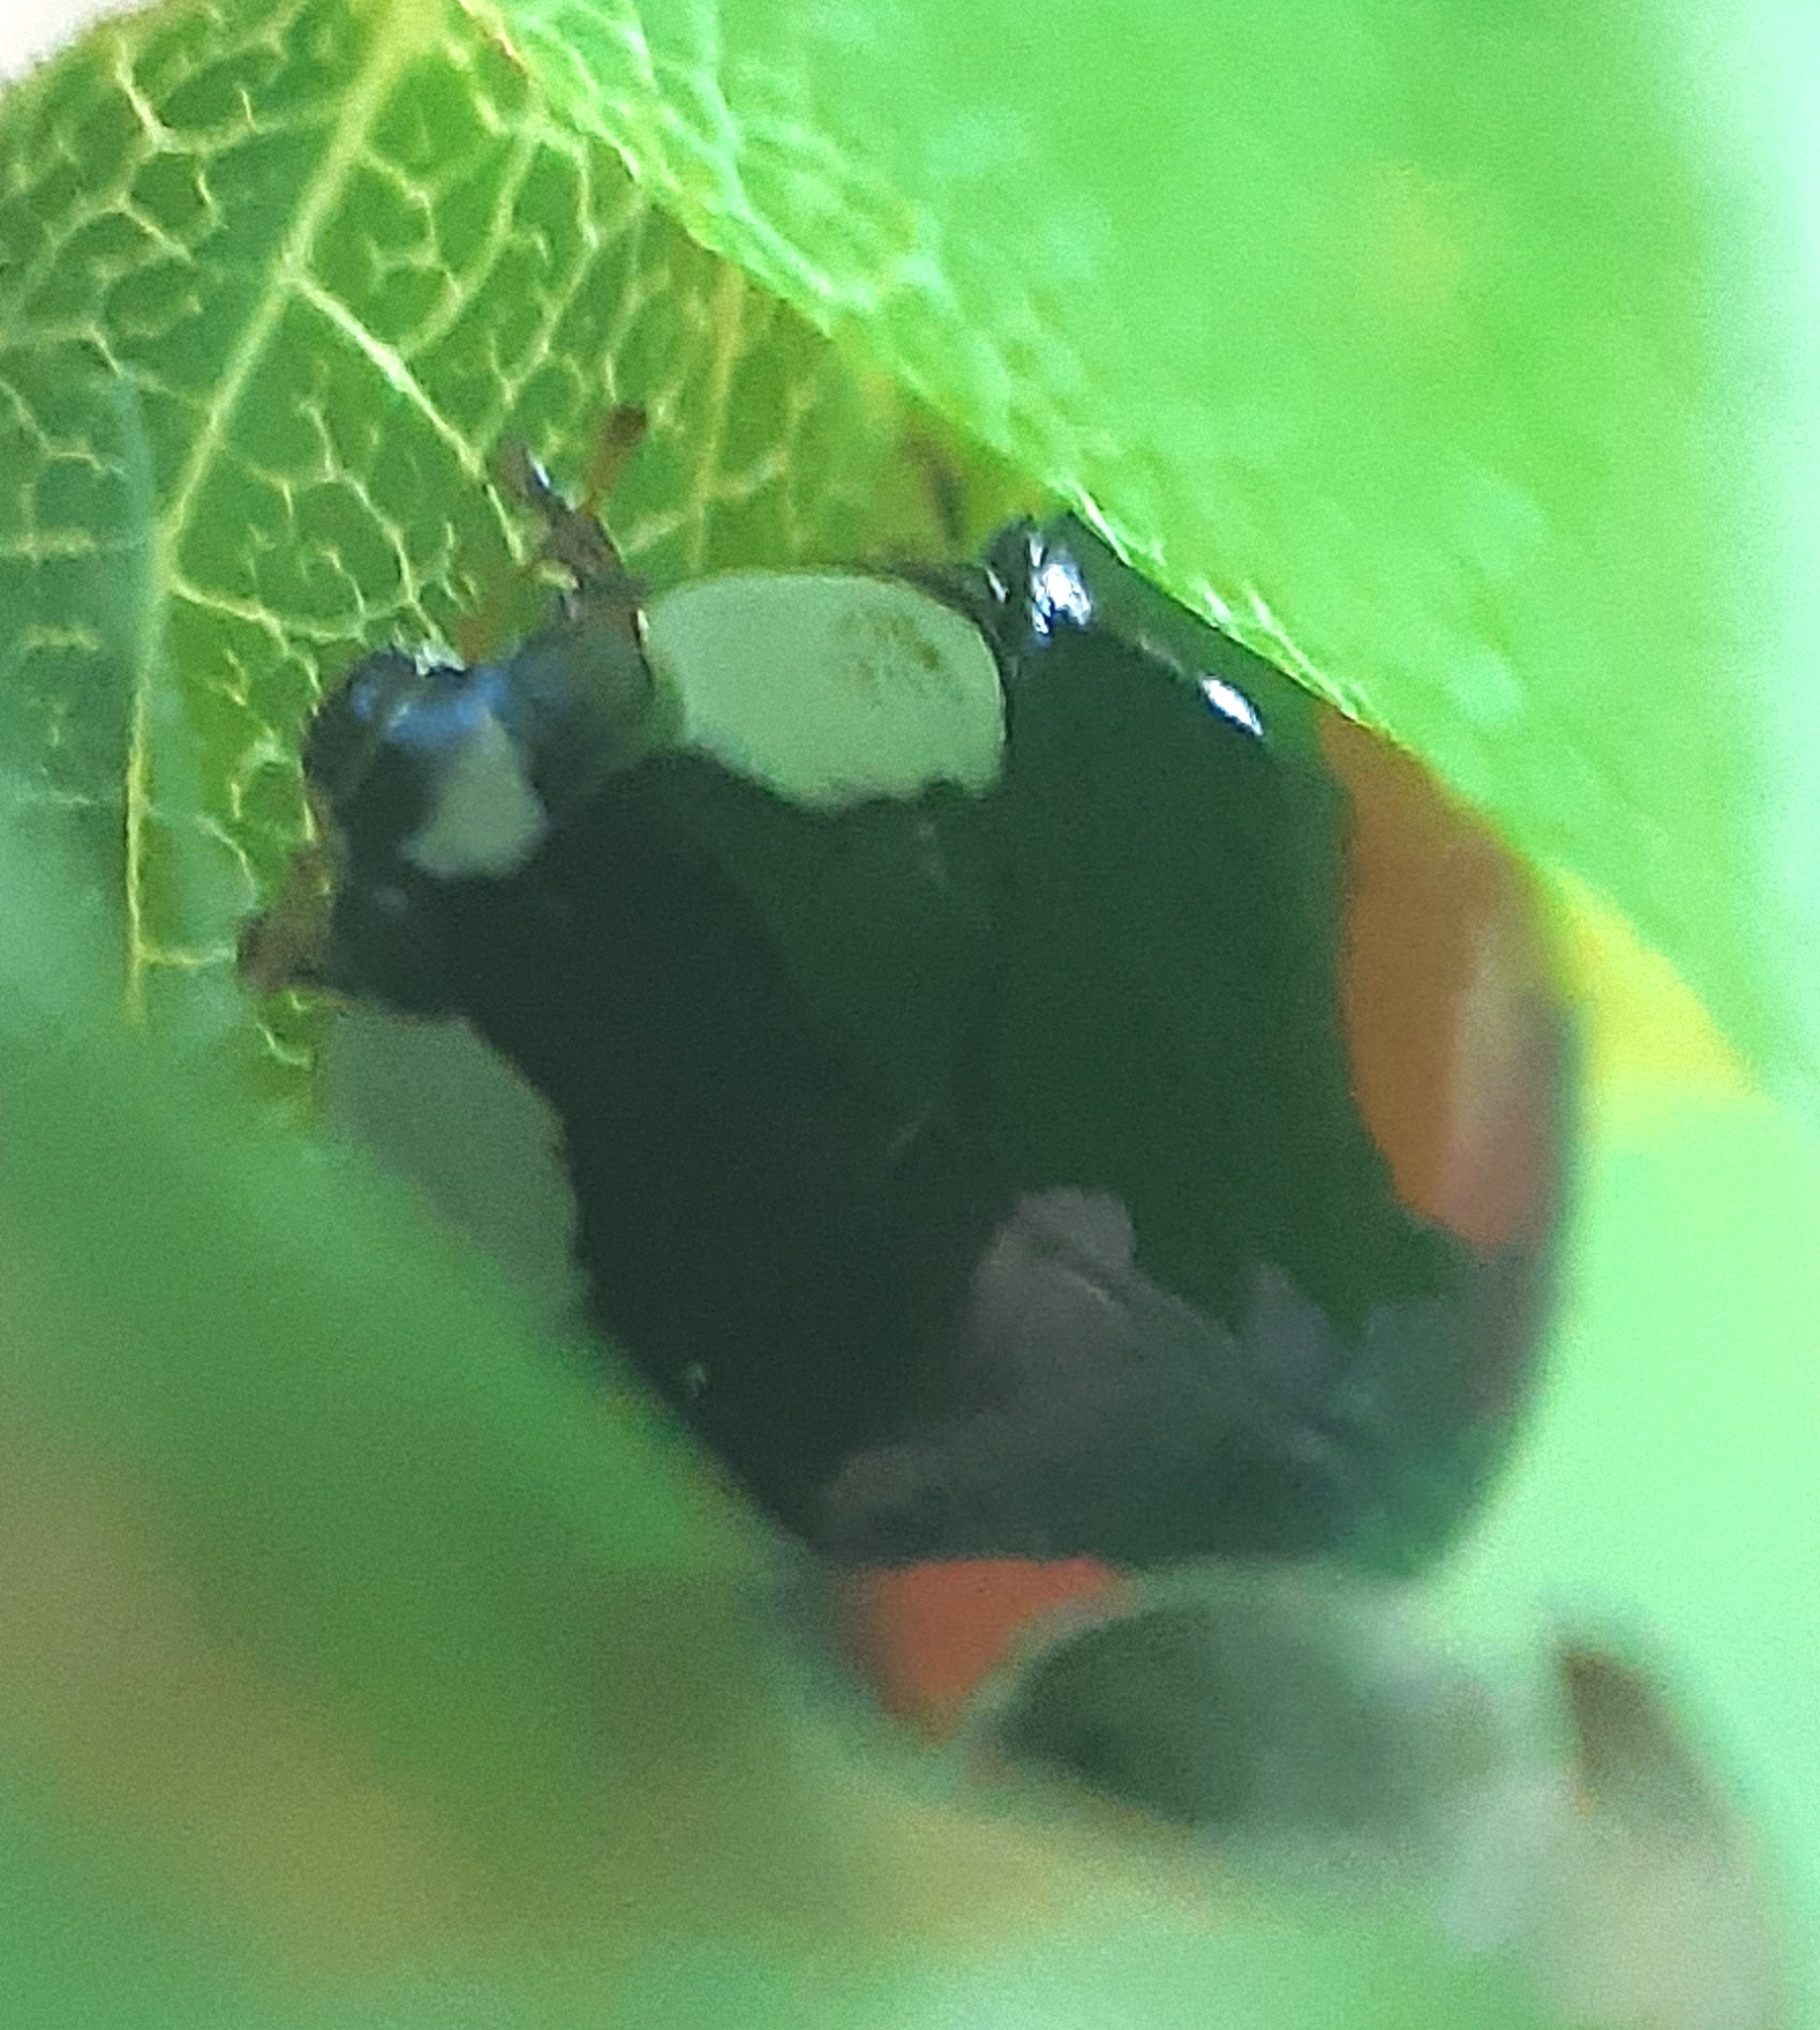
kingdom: Animalia
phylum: Arthropoda
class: Insecta
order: Coleoptera
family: Coccinellidae
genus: Harmonia
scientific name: Harmonia axyridis
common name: Harlequin ladybird
